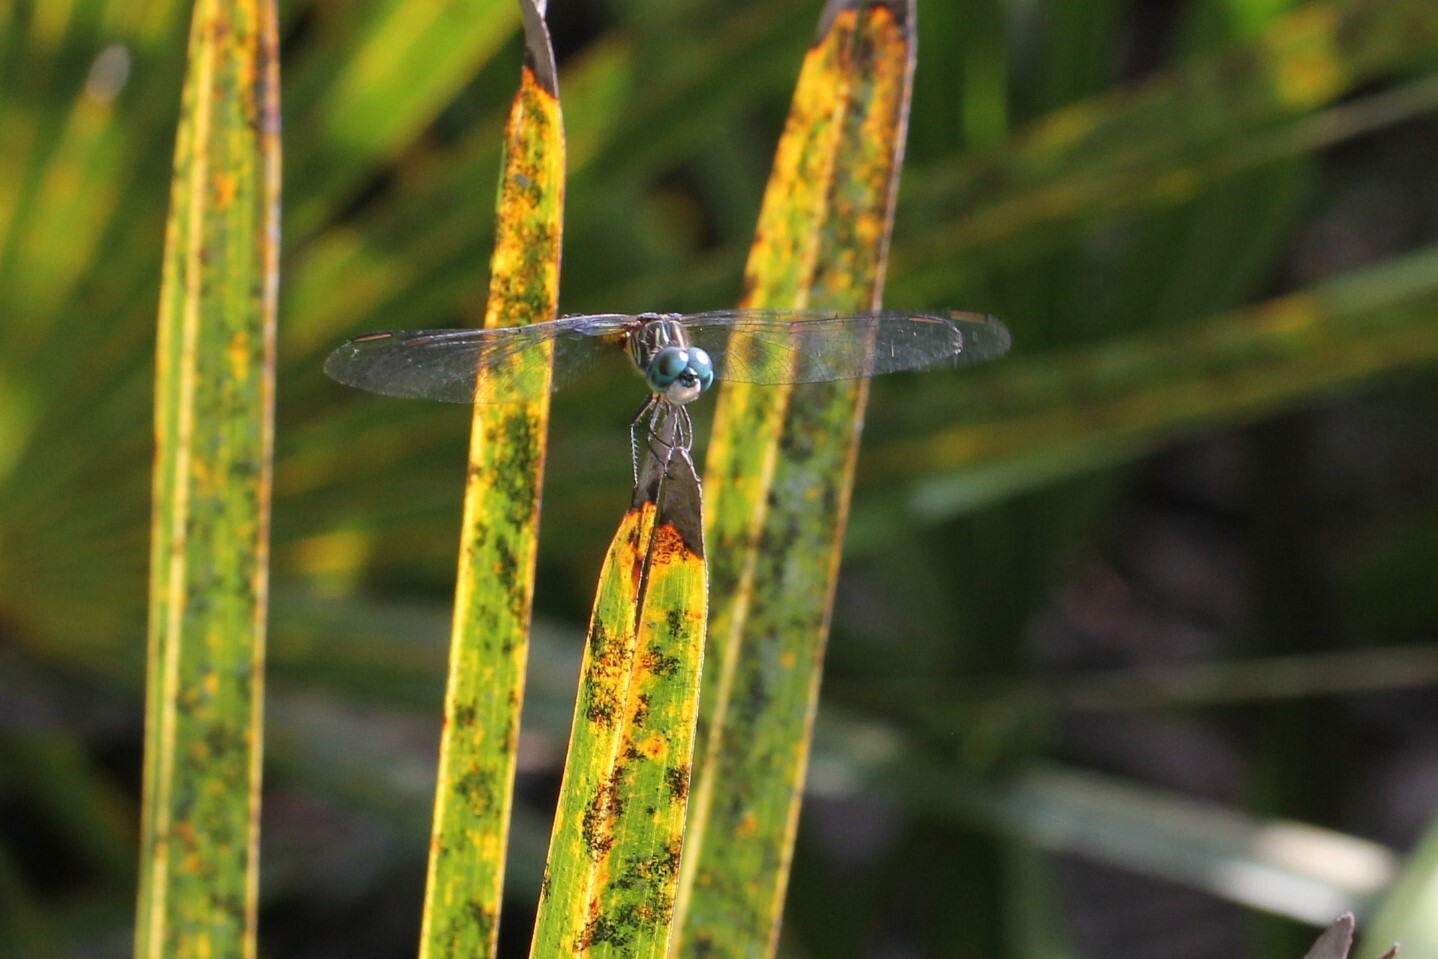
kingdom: Animalia
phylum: Arthropoda
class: Insecta
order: Odonata
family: Libellulidae
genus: Pachydiplax
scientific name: Pachydiplax longipennis
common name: Blue dasher
